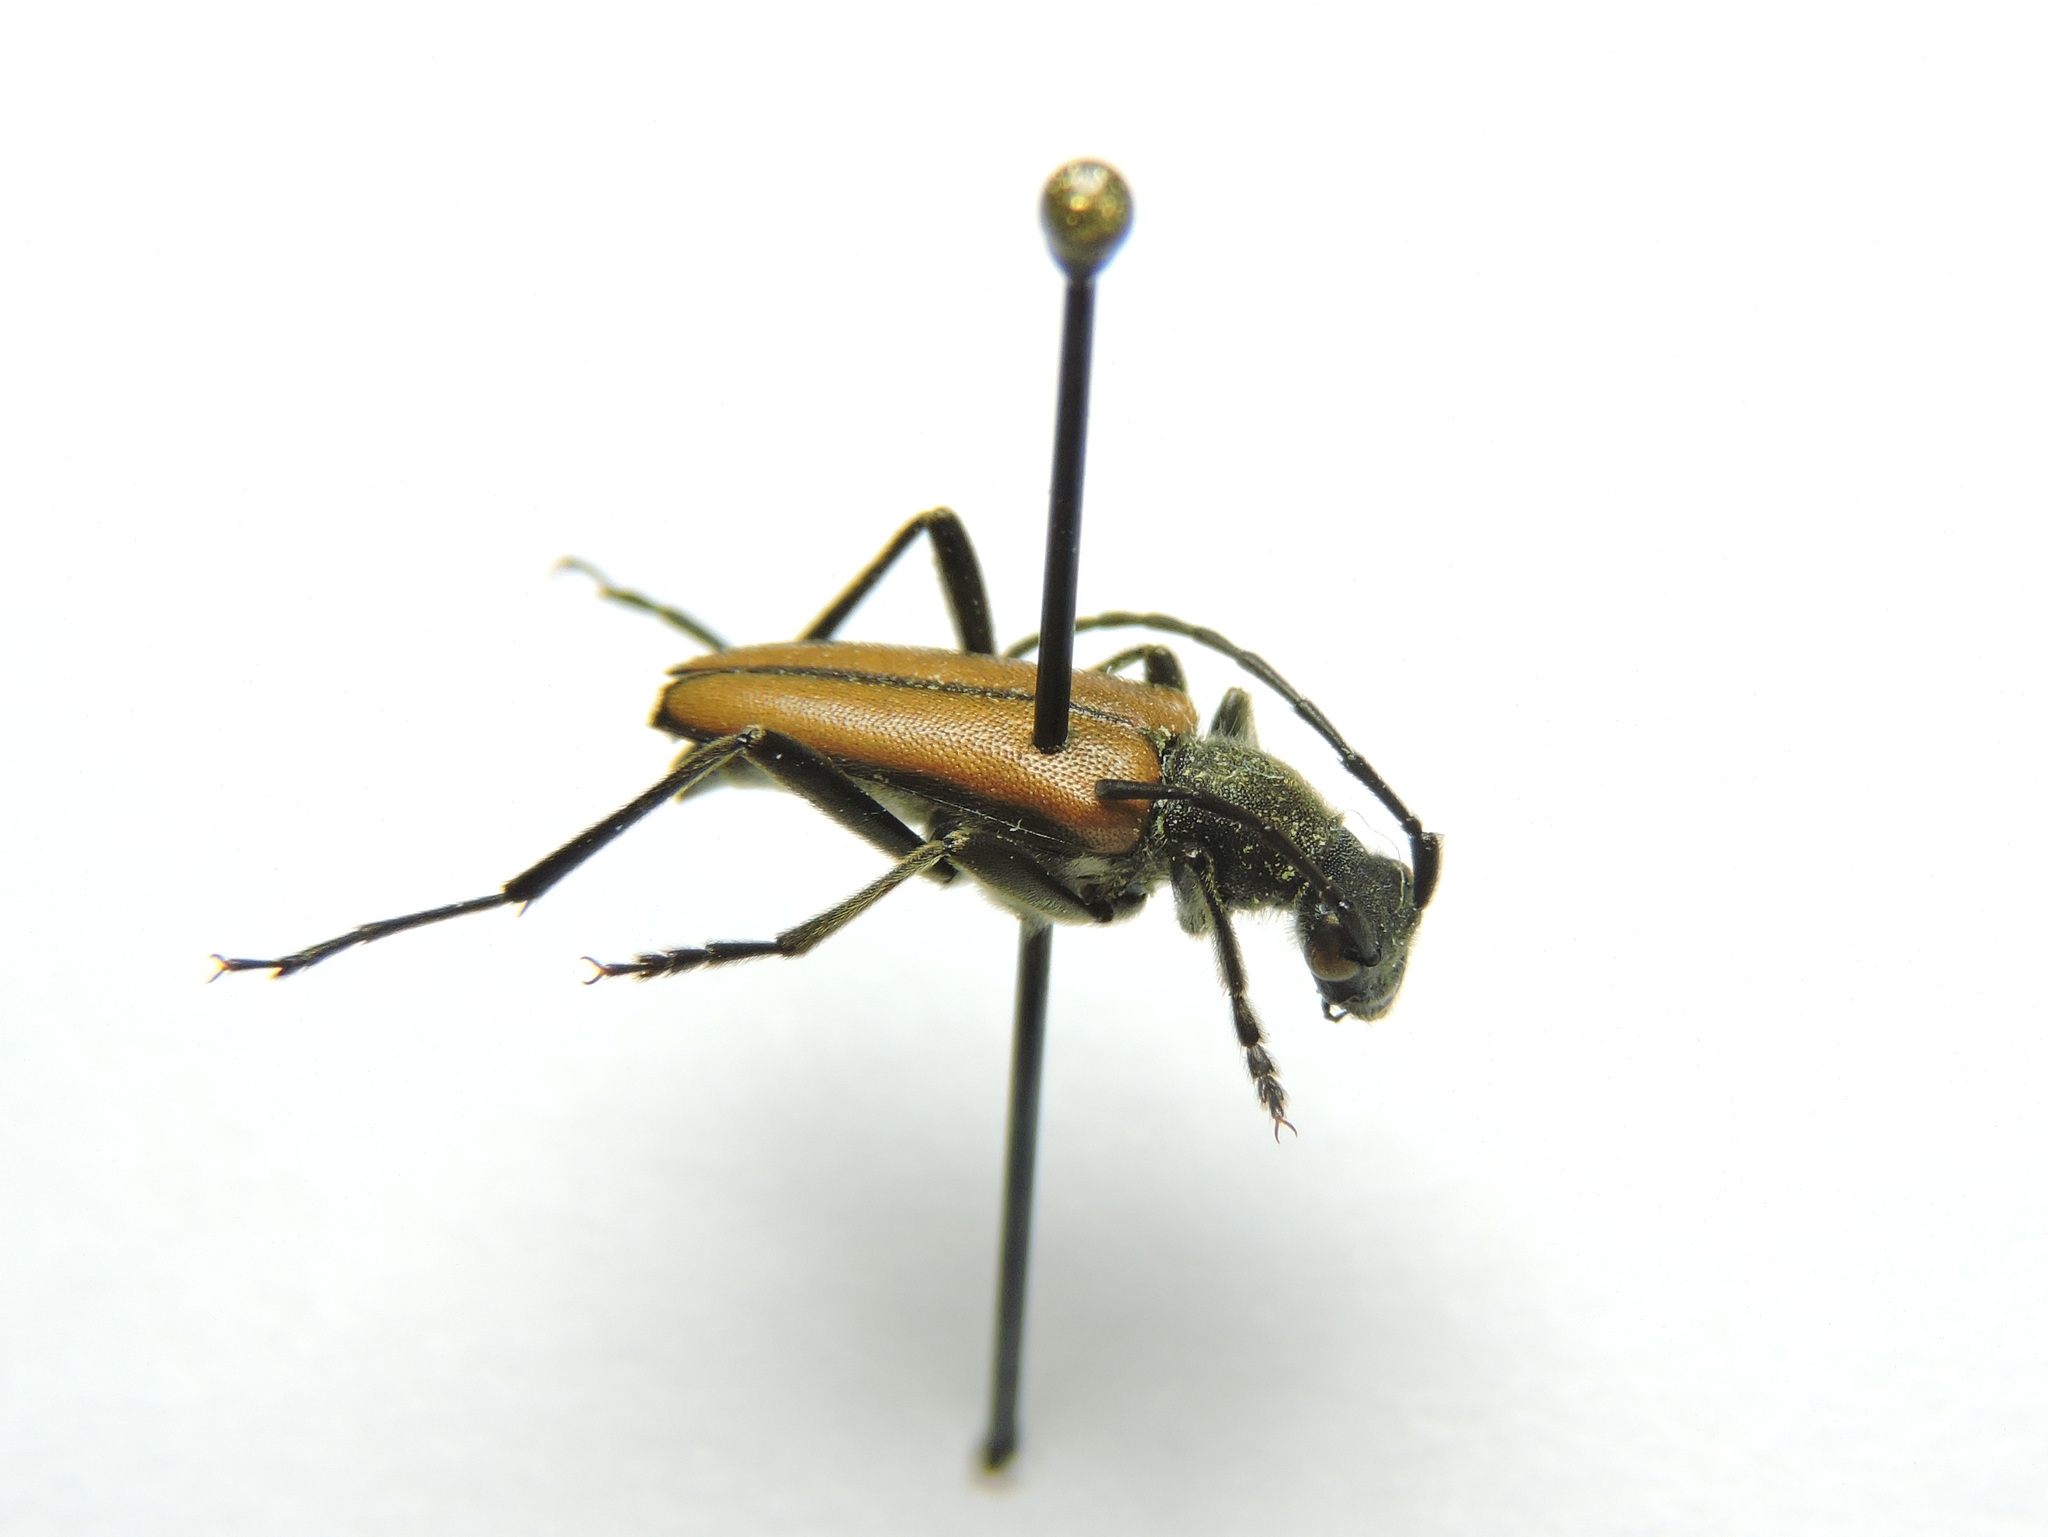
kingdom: Animalia
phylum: Arthropoda
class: Insecta
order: Coleoptera
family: Cerambycidae
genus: Anastrangalia
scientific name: Anastrangalia reyi
